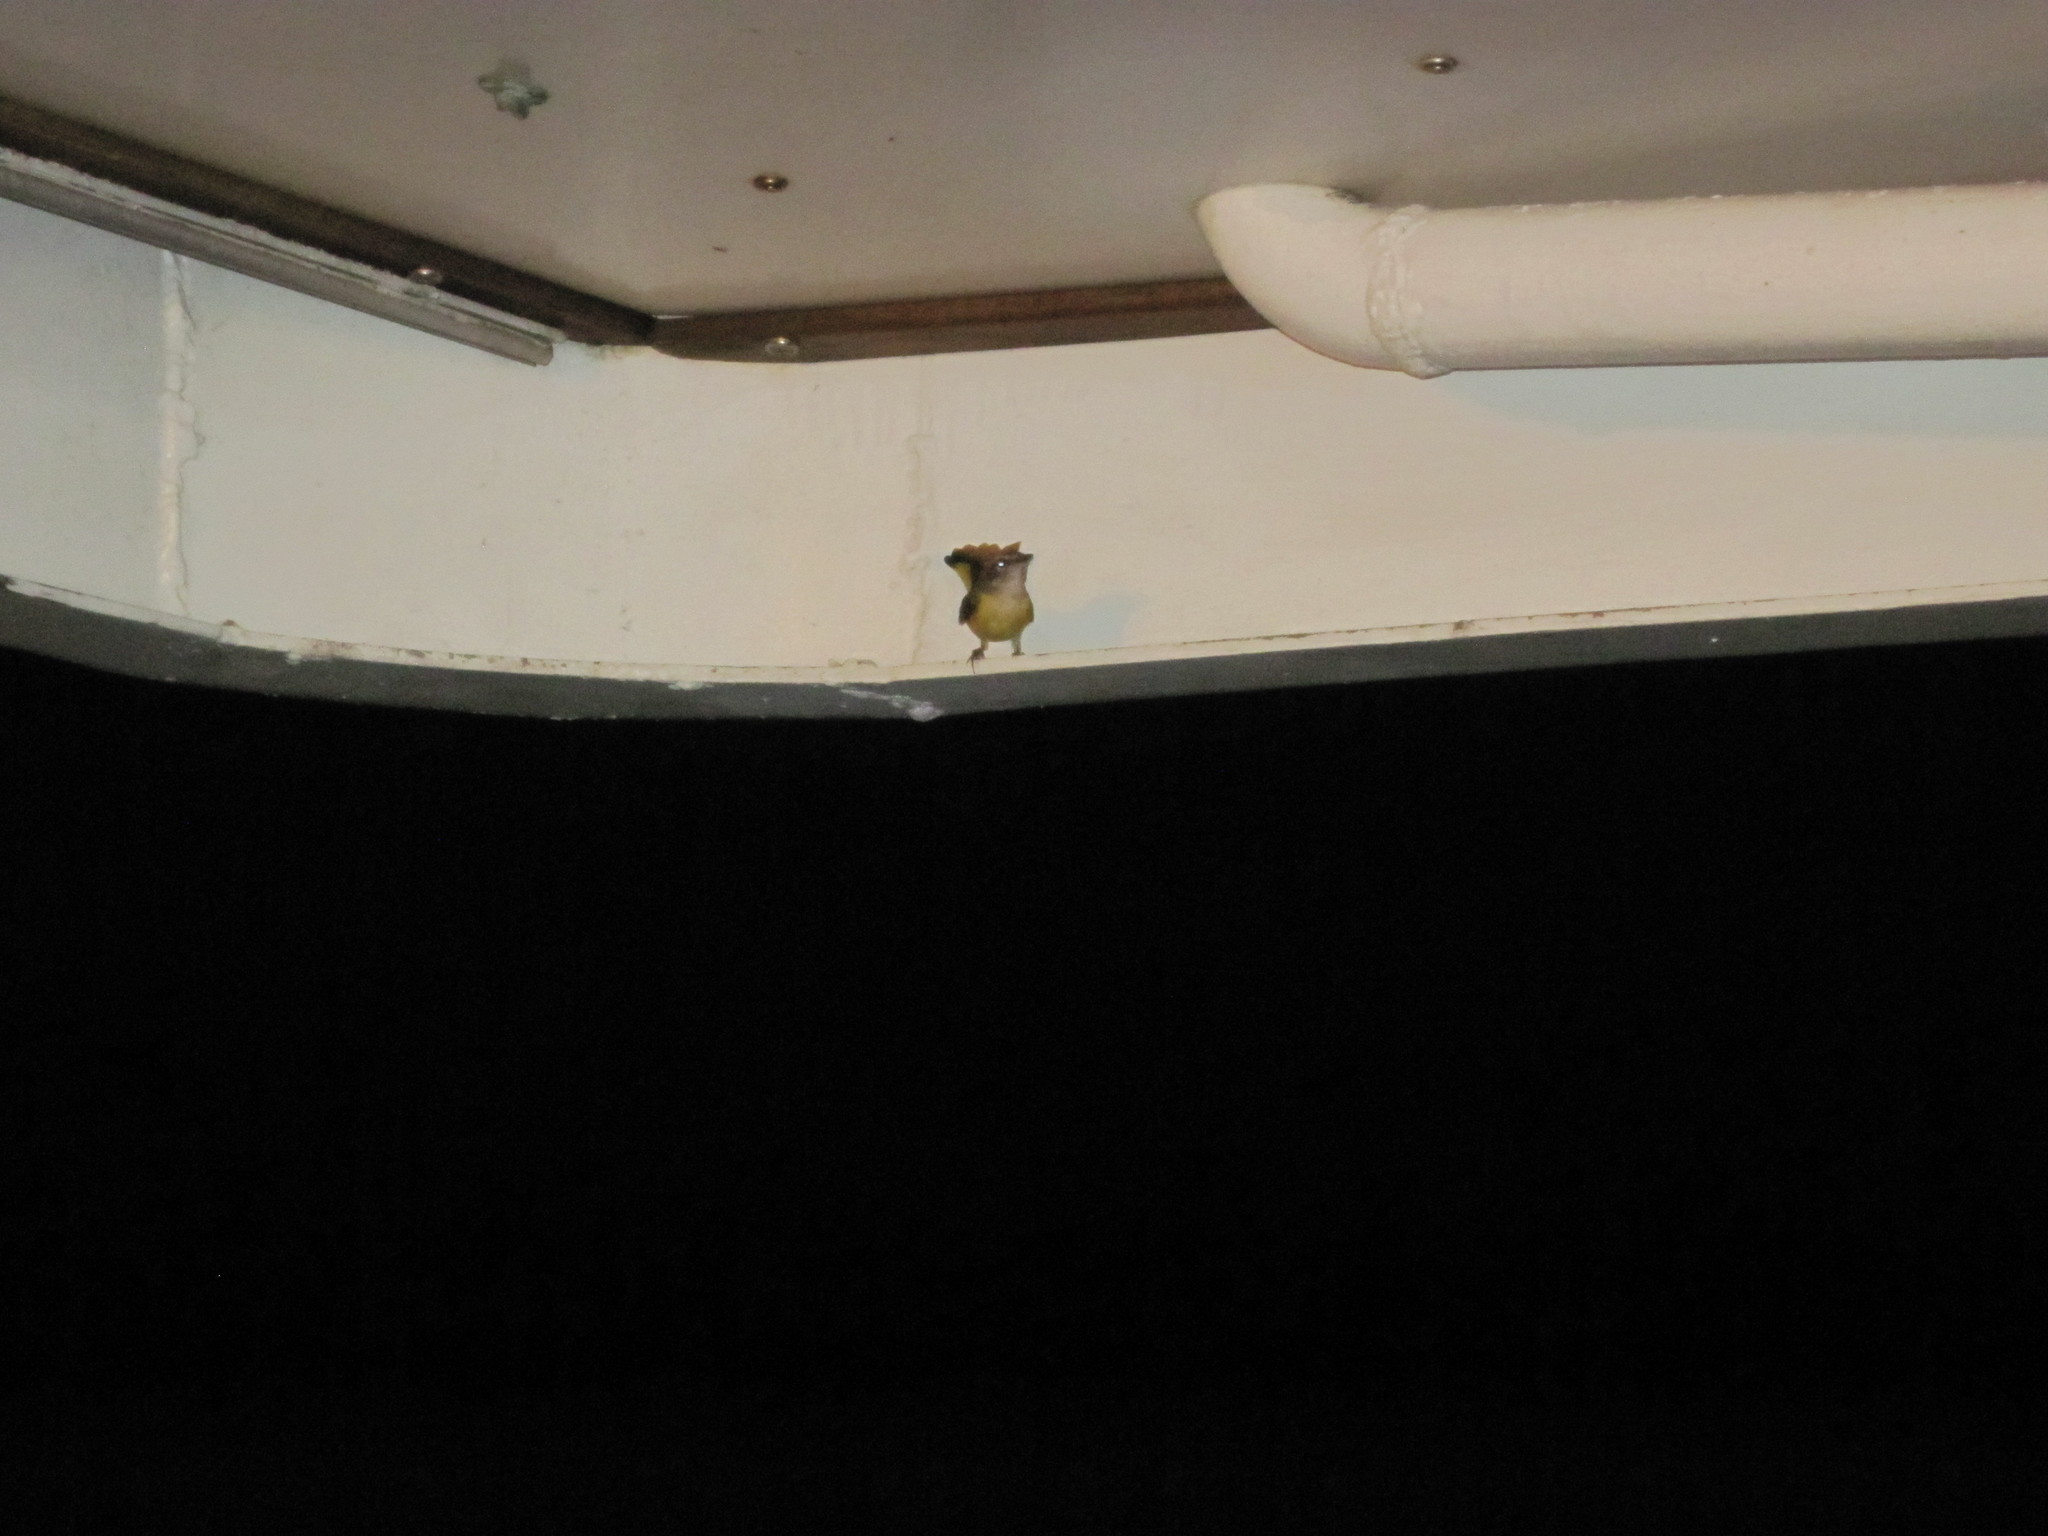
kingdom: Animalia
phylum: Chordata
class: Aves
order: Passeriformes
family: Parulidae
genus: Setophaga
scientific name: Setophaga ruticilla
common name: American redstart
